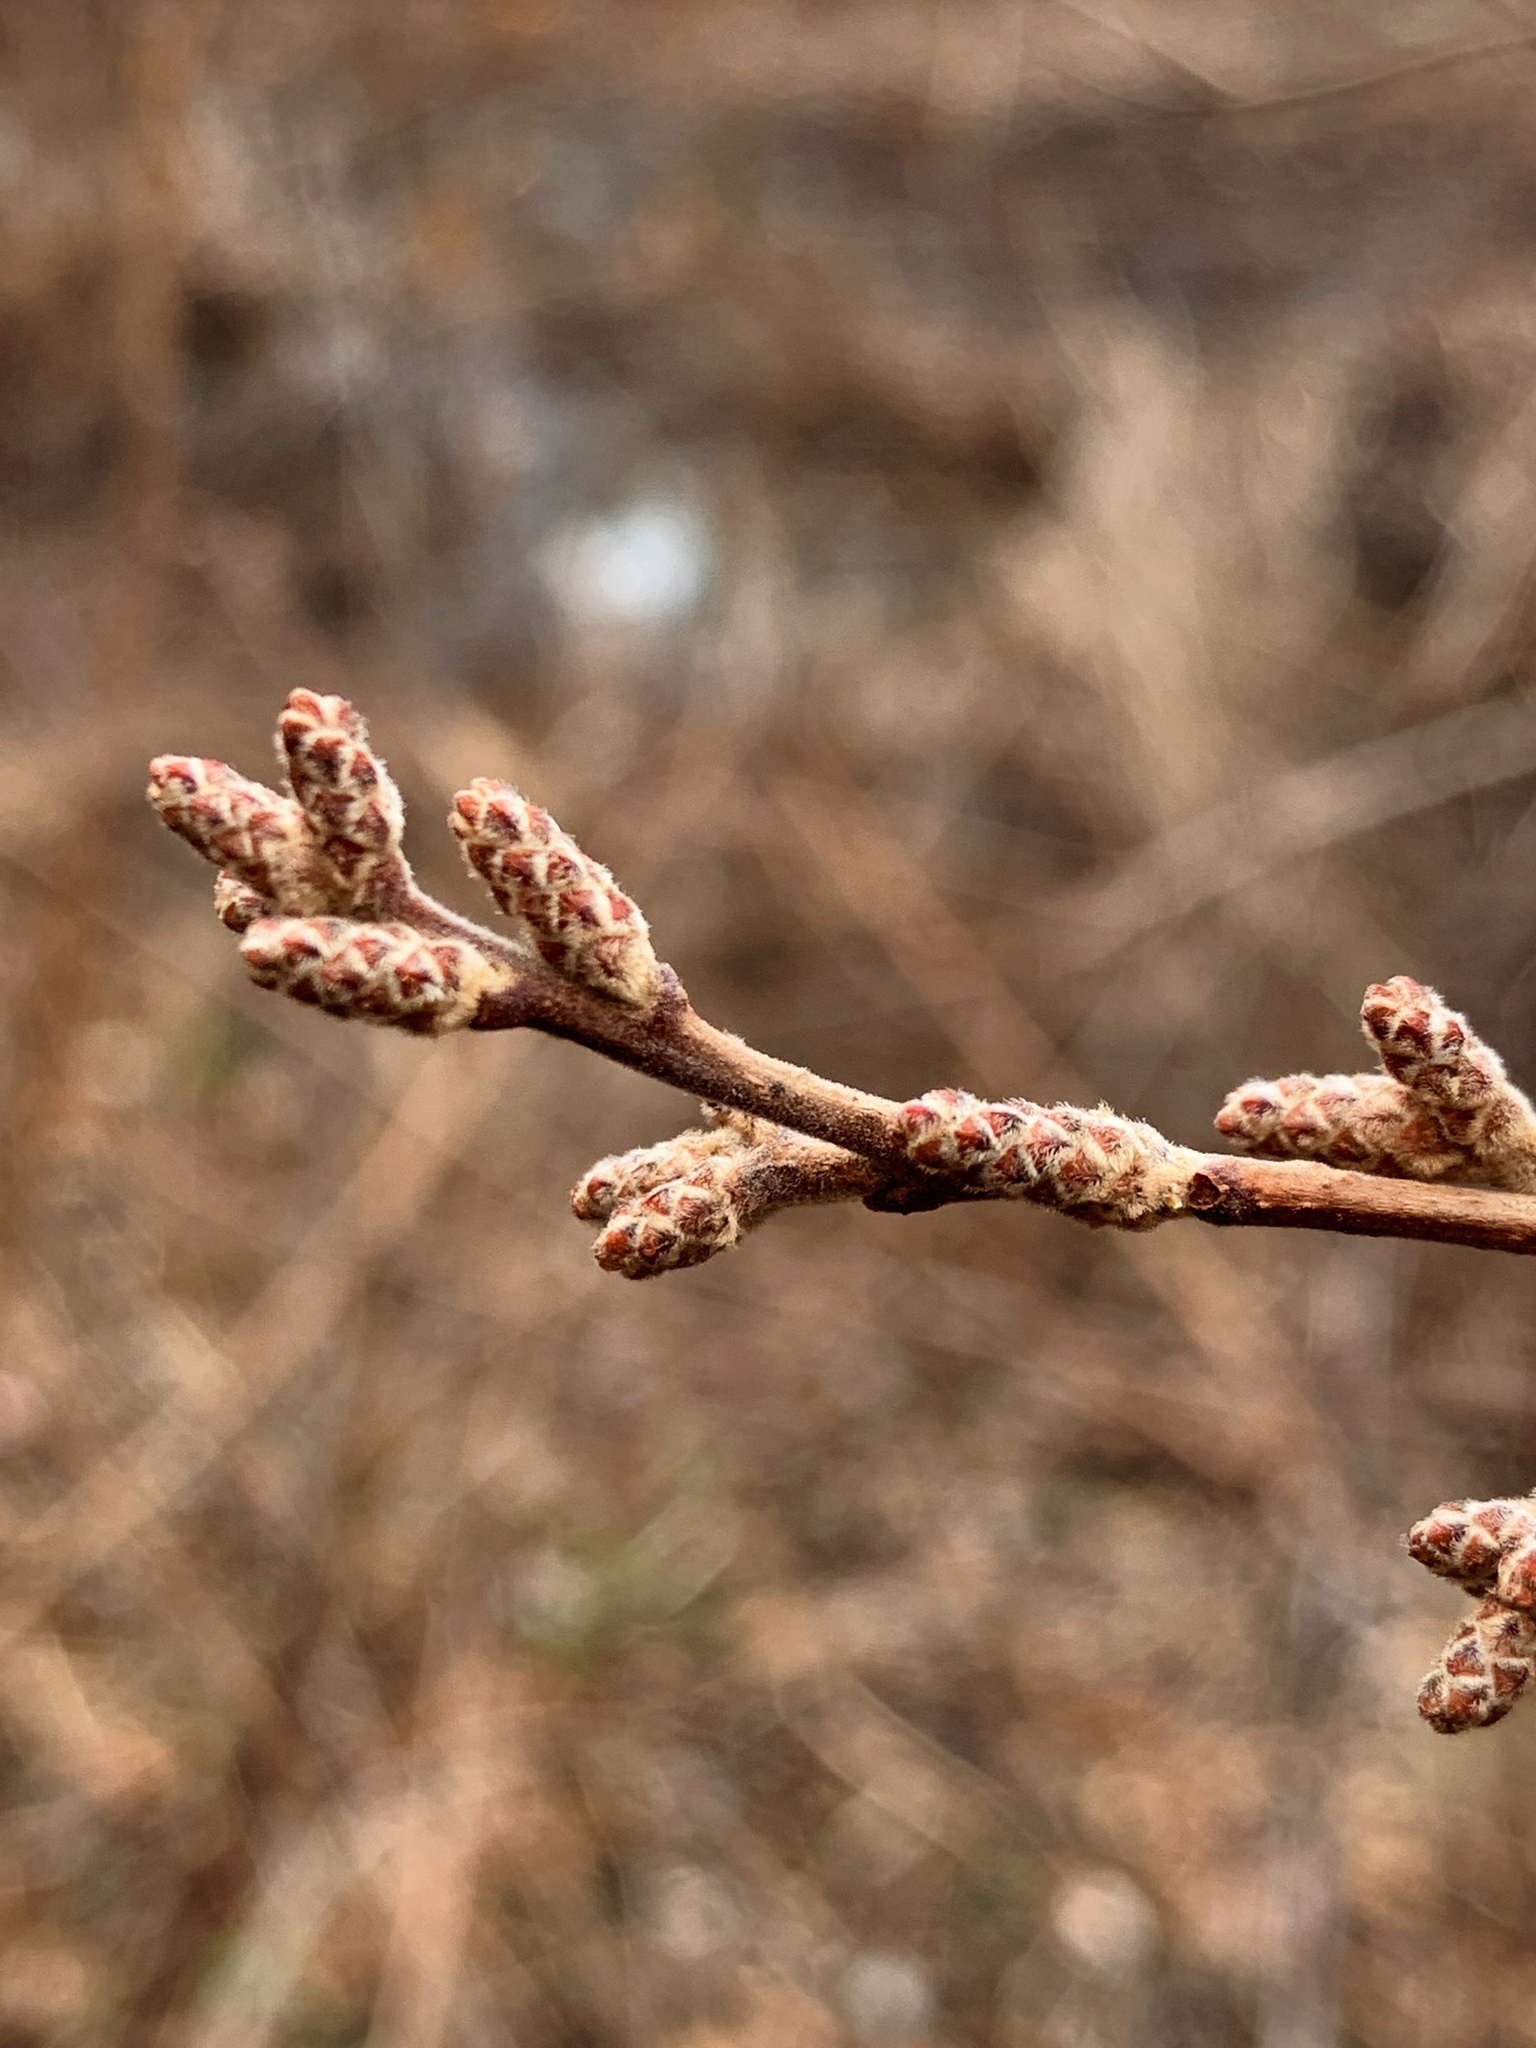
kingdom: Plantae
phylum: Tracheophyta
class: Magnoliopsida
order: Sapindales
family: Anacardiaceae
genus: Rhus
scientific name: Rhus aromatica
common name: Aromatic sumac
